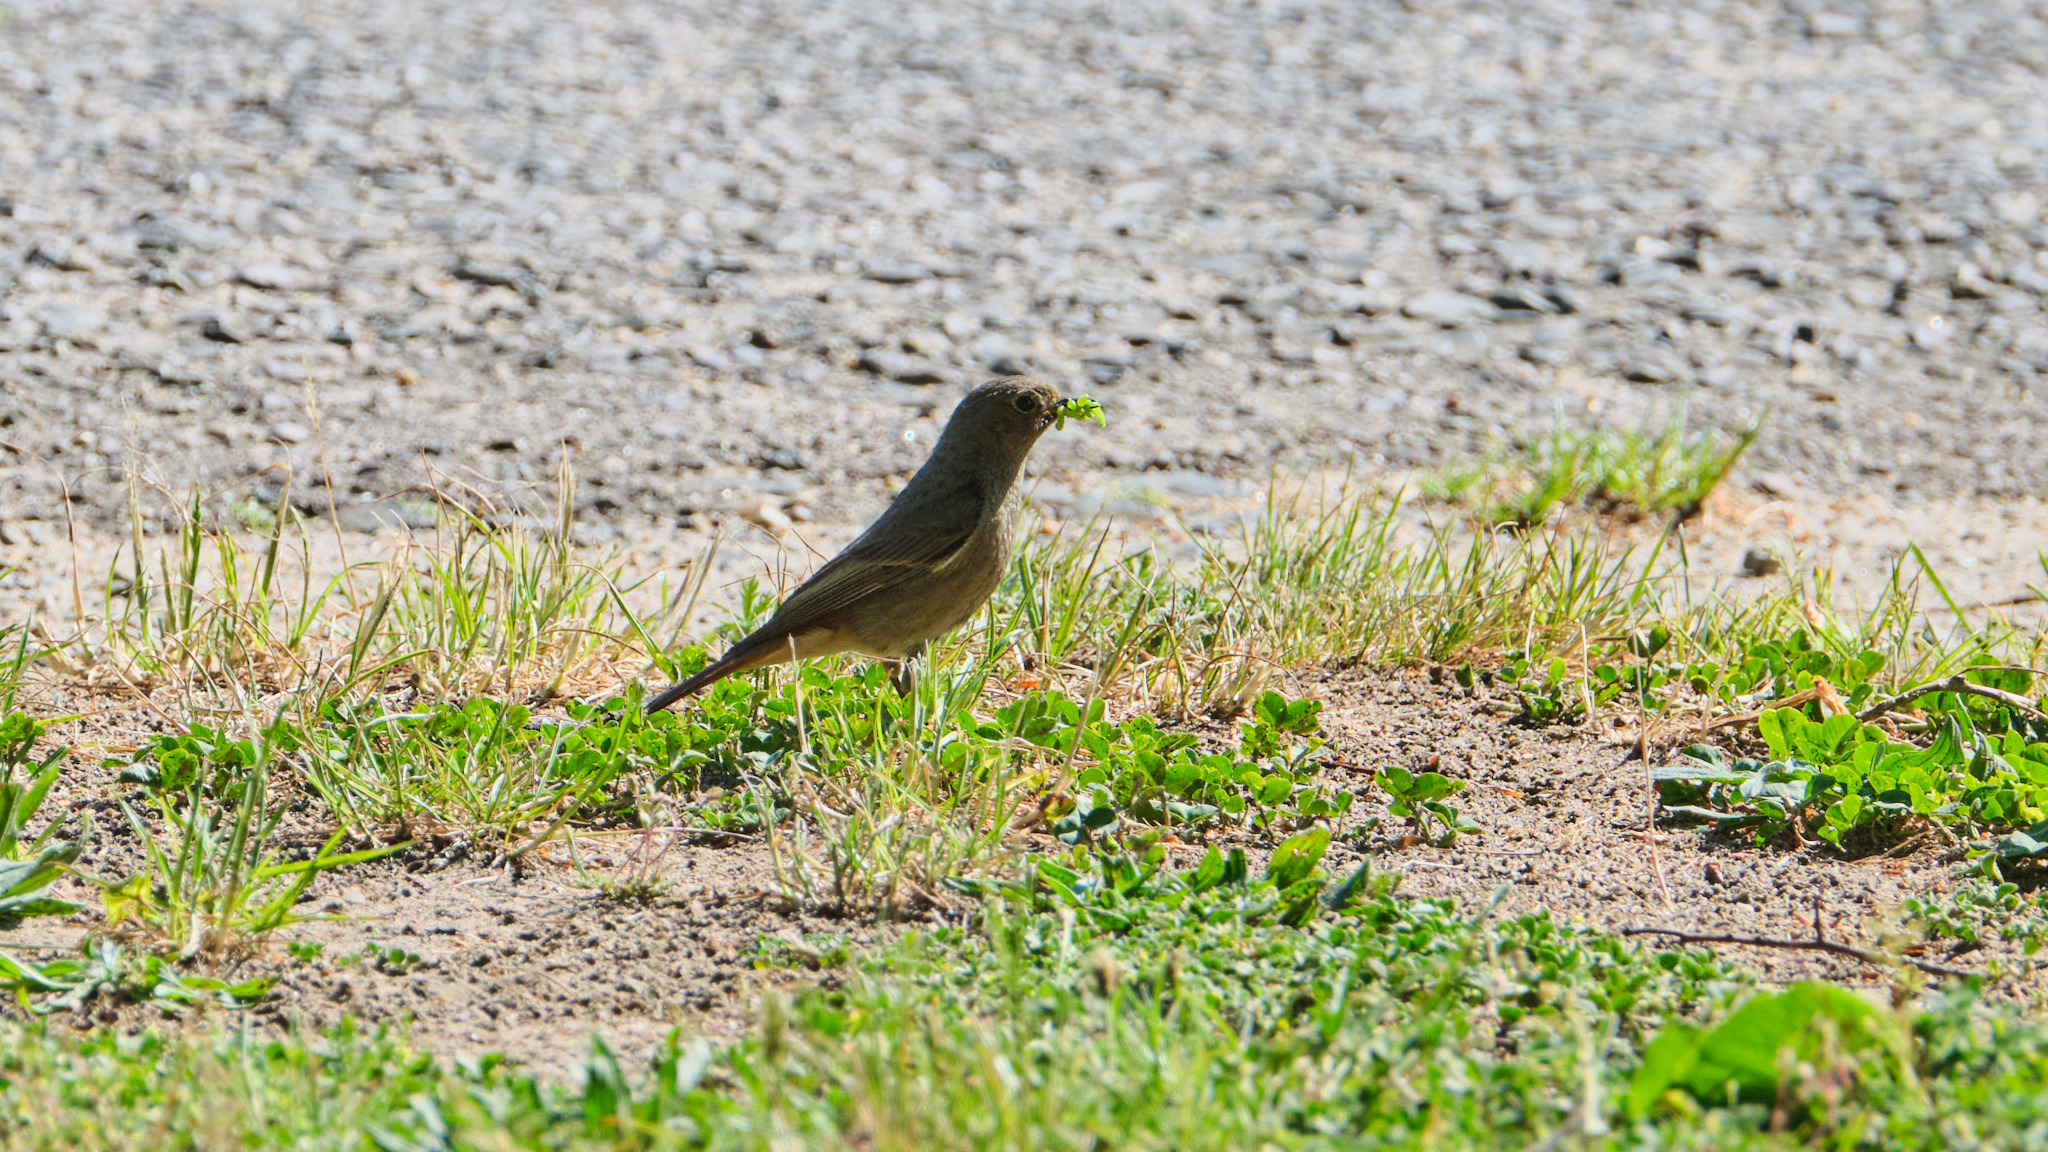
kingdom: Animalia
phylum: Chordata
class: Aves
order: Passeriformes
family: Muscicapidae
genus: Phoenicurus
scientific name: Phoenicurus ochruros
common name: Black redstart
